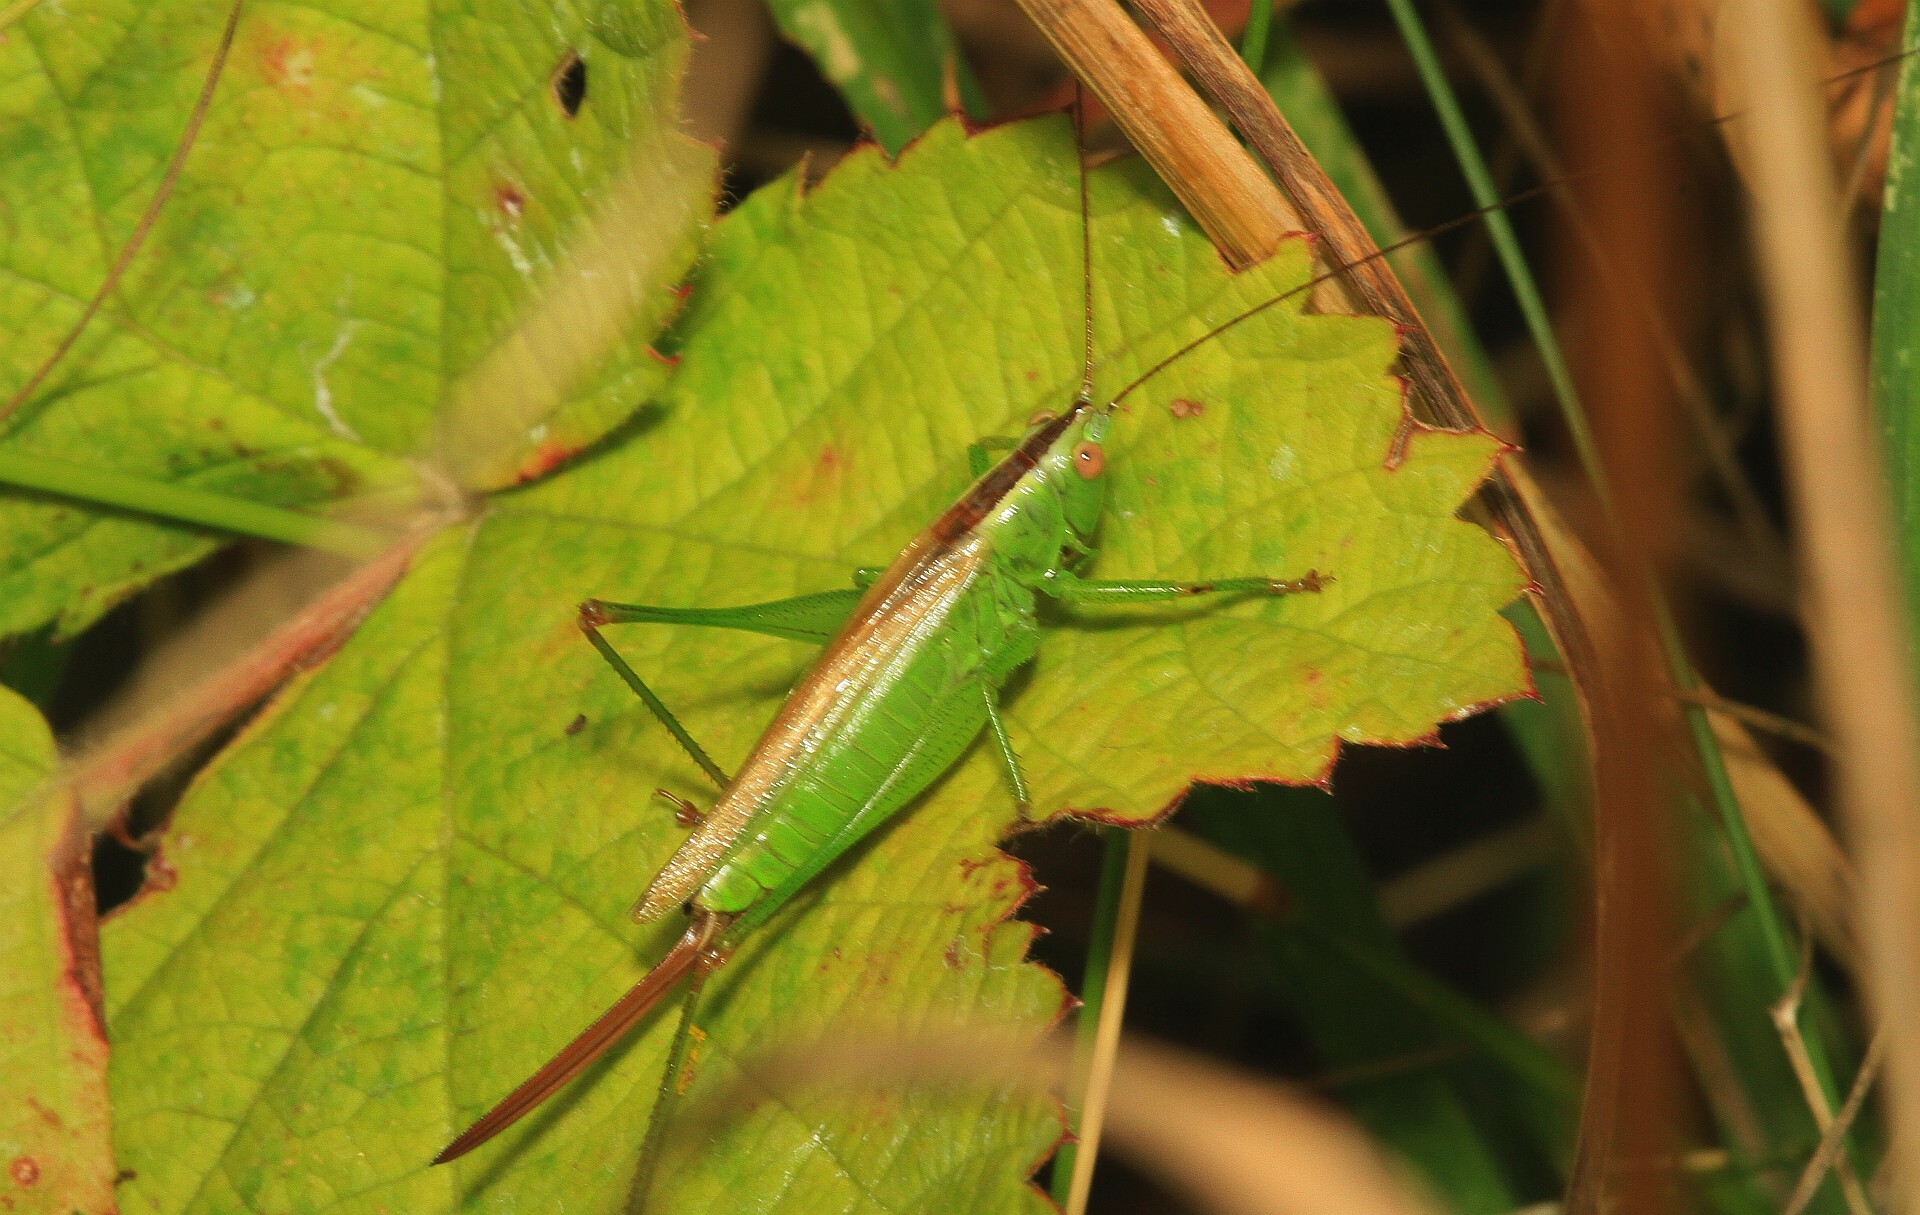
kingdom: Animalia
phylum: Arthropoda
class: Insecta
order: Orthoptera
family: Tettigoniidae
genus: Conocephalus
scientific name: Conocephalus fuscus
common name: Long-winged conehead
